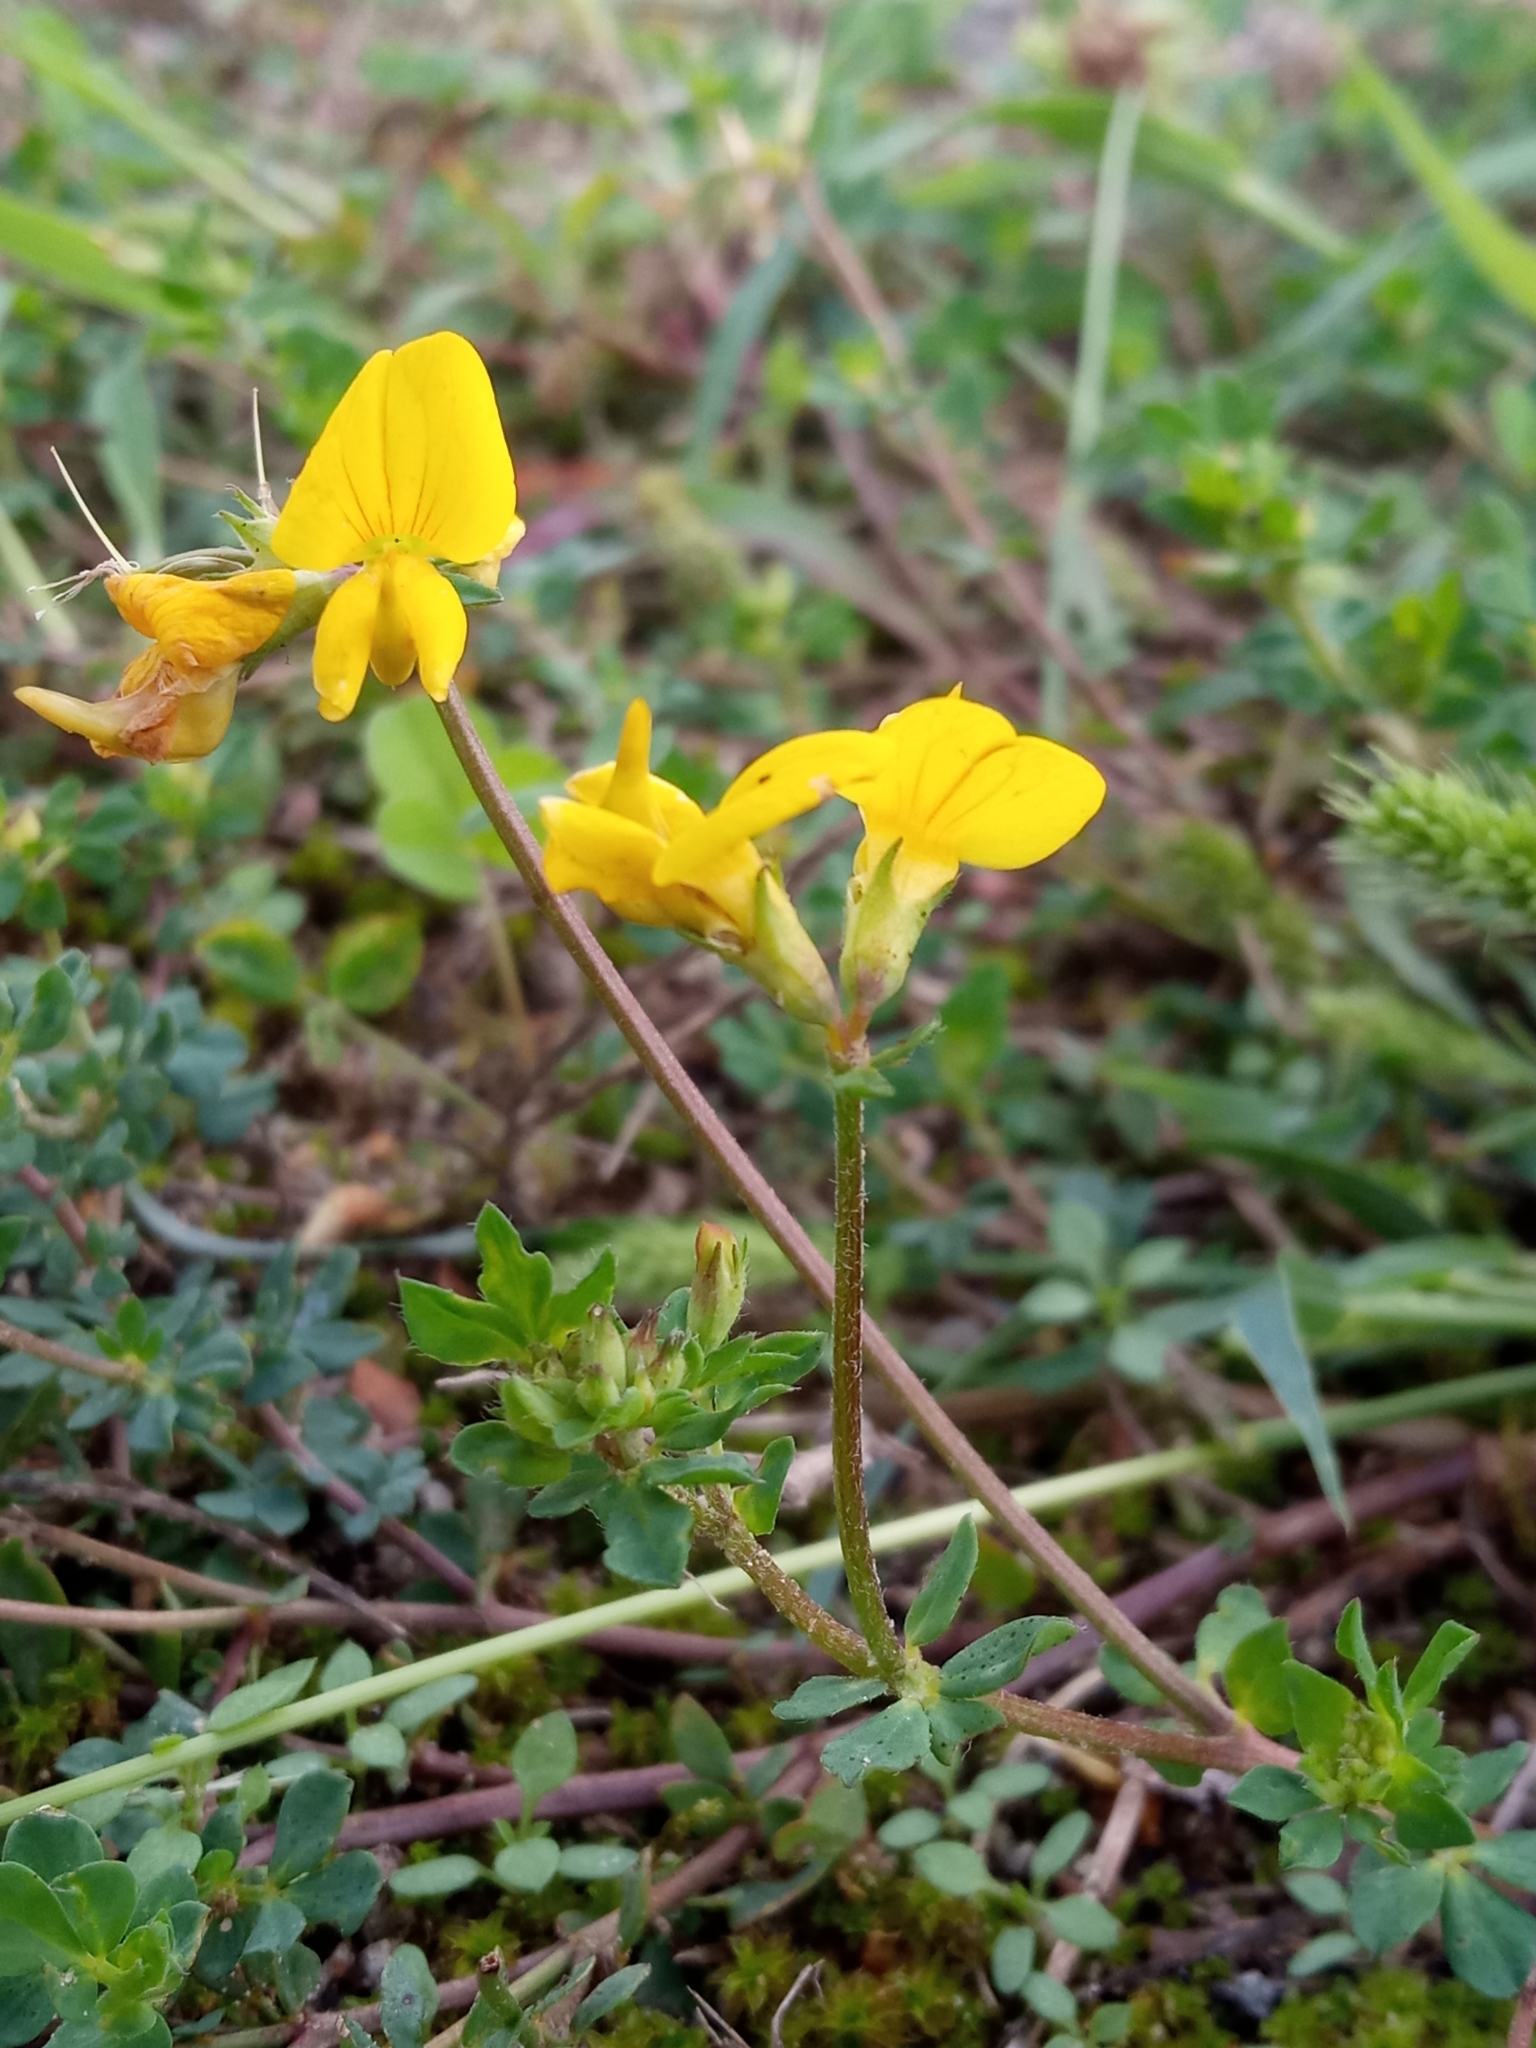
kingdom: Plantae
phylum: Tracheophyta
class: Magnoliopsida
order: Fabales
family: Fabaceae
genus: Lotus
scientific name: Lotus corniculatus
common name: Common bird's-foot-trefoil
